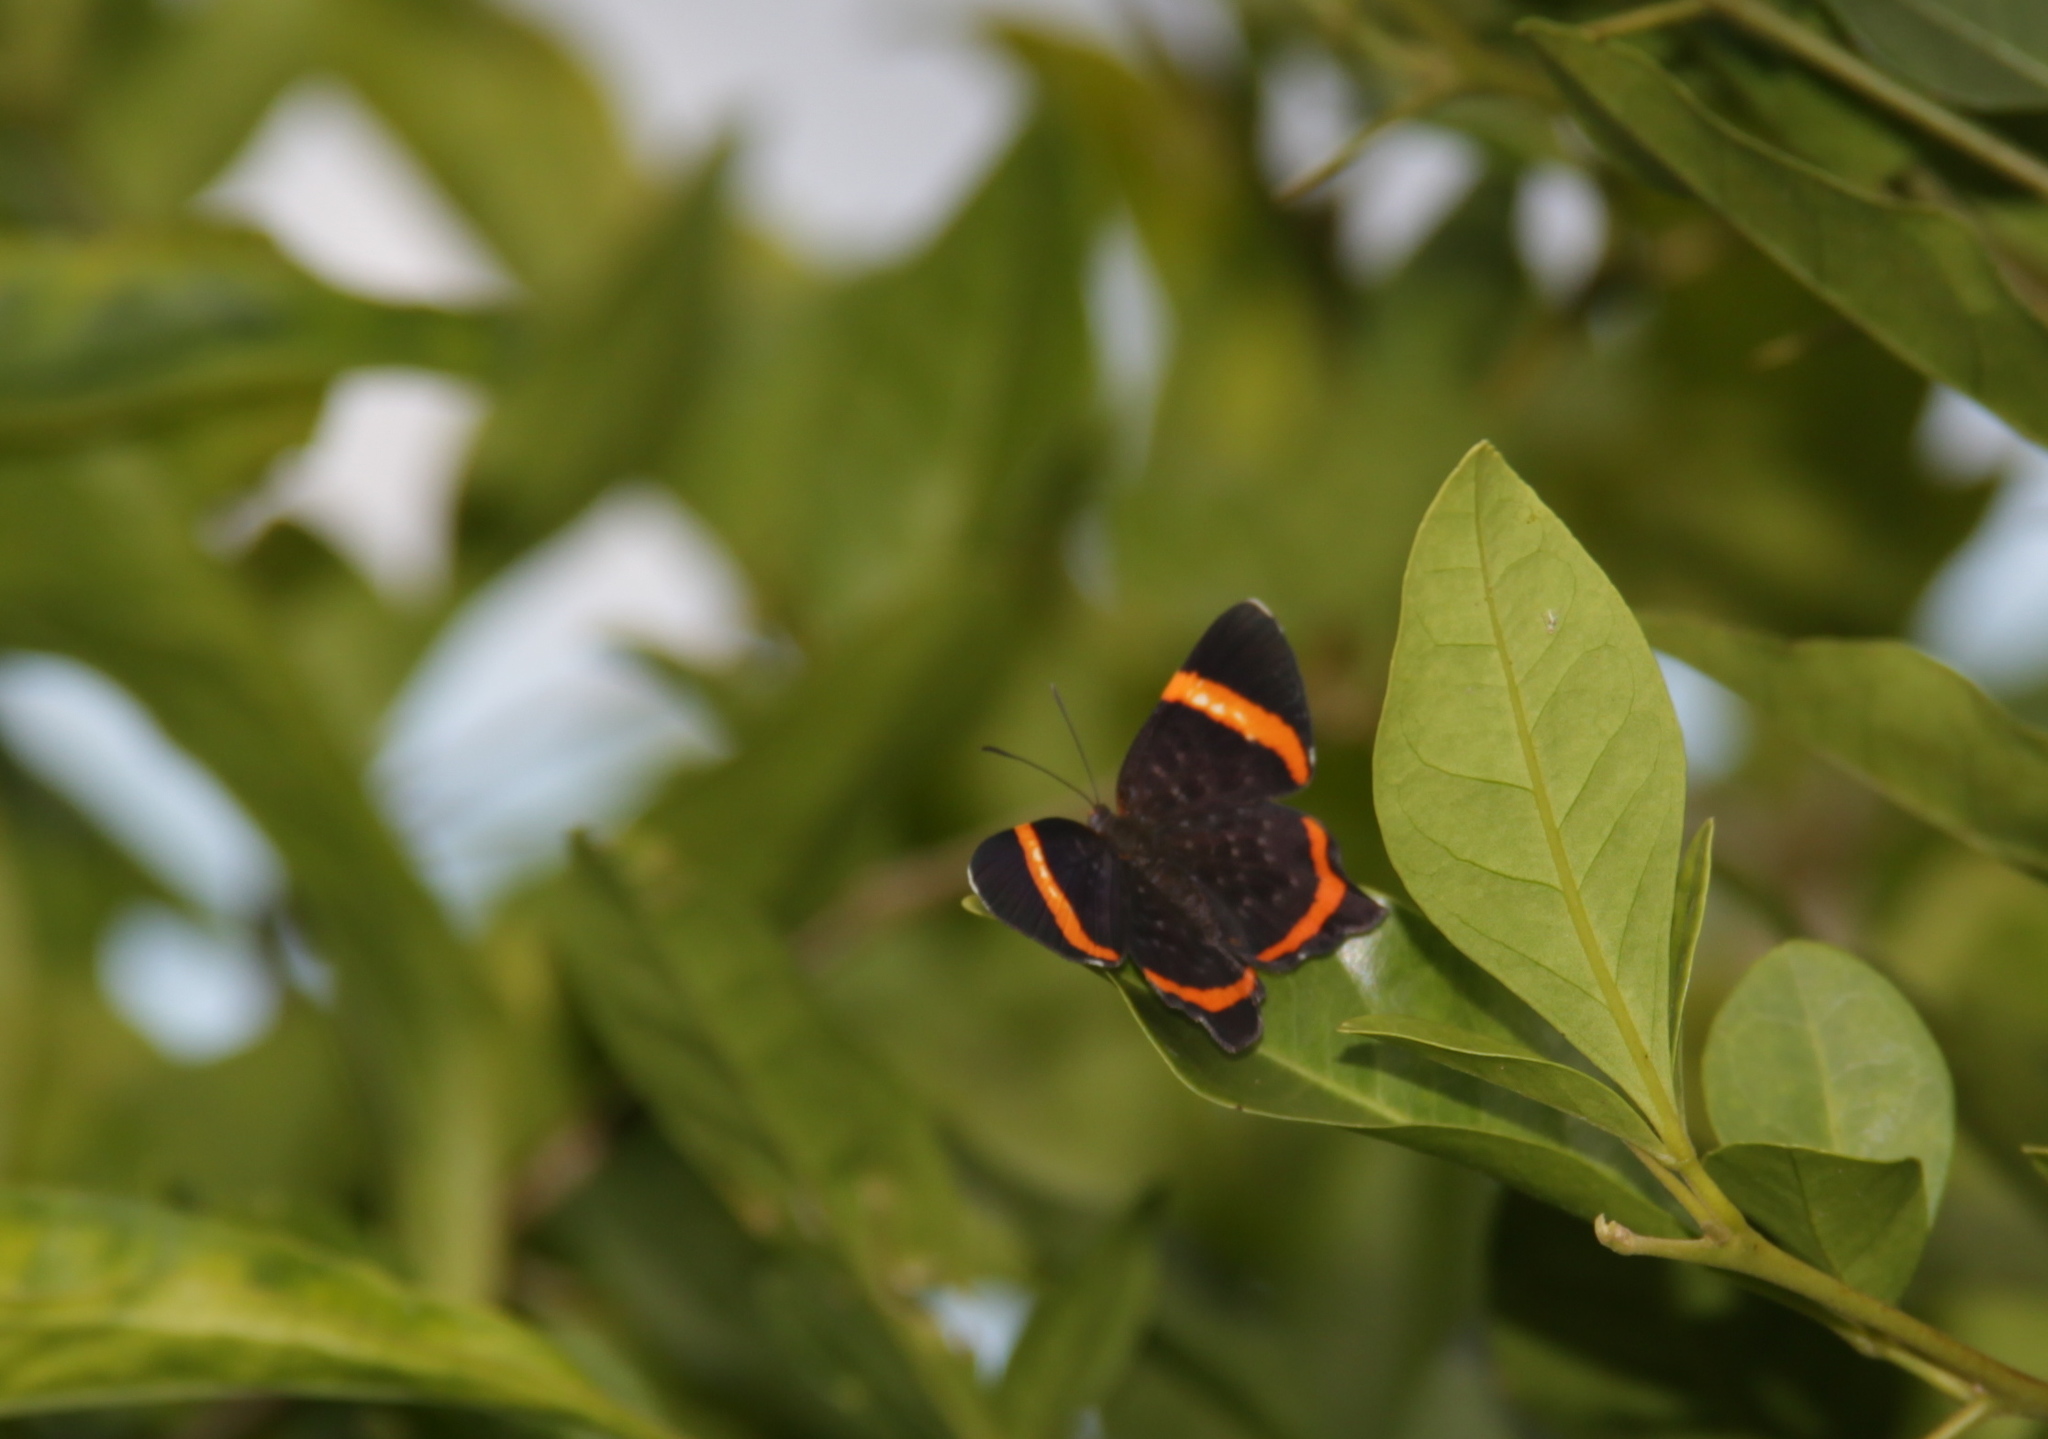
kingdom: Animalia
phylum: Arthropoda
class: Insecta
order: Lepidoptera
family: Riodinidae
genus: Riodina
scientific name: Riodina lysippus
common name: Lysippus metalmark
